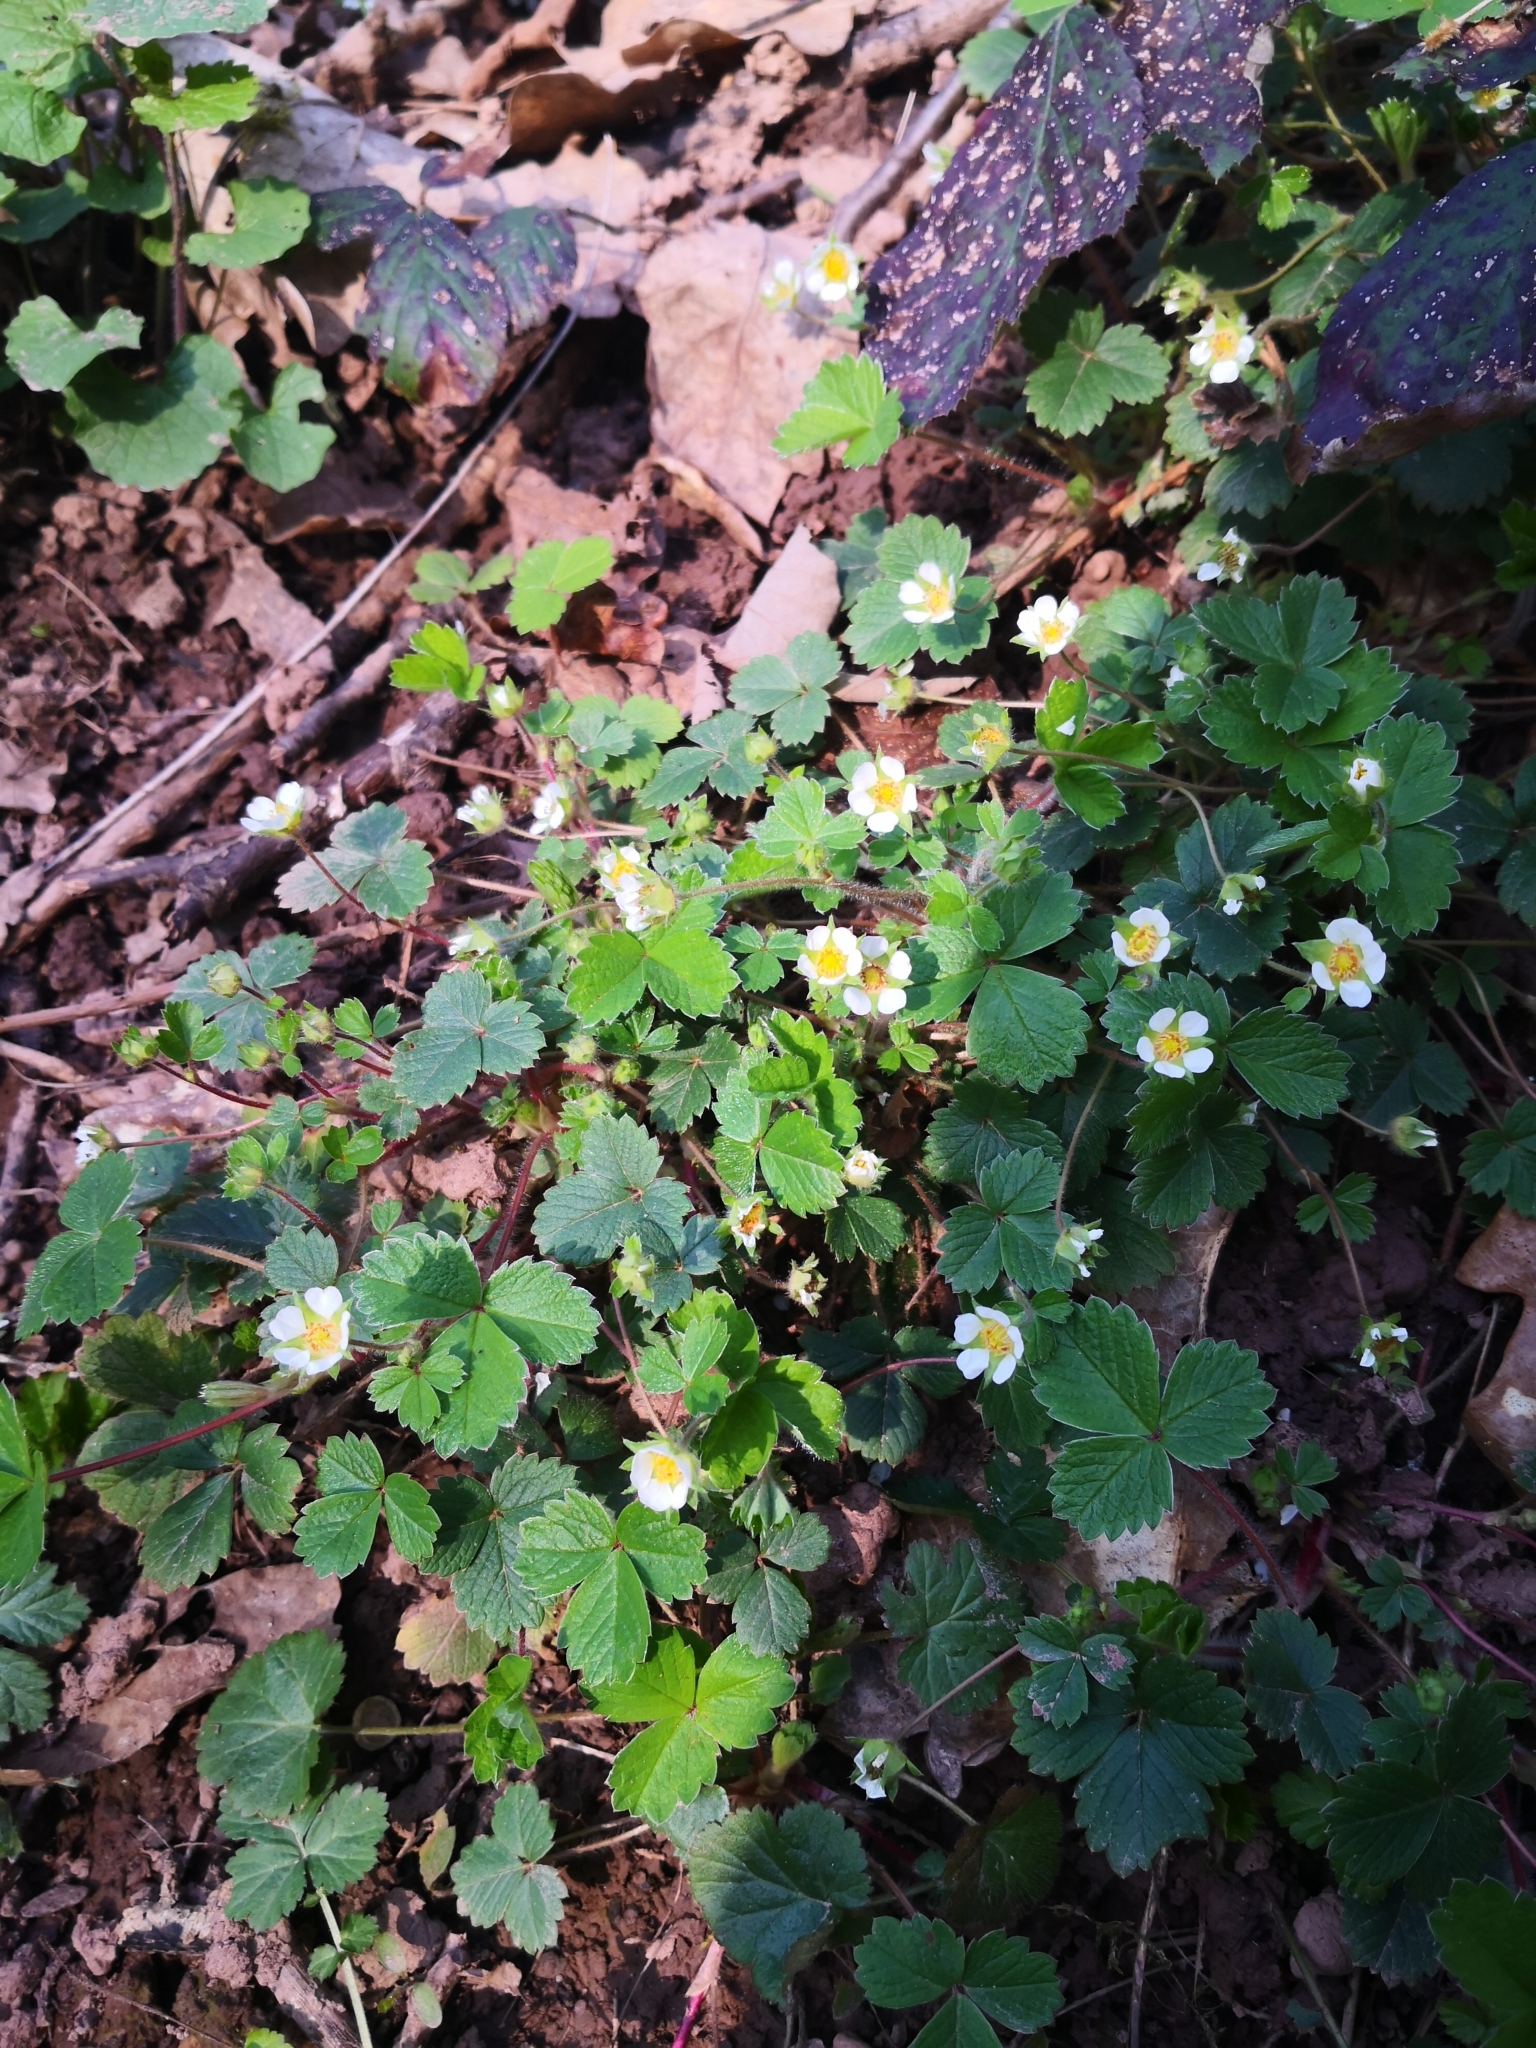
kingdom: Plantae
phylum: Tracheophyta
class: Magnoliopsida
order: Rosales
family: Rosaceae
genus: Potentilla
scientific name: Potentilla sterilis
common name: Barren strawberry
